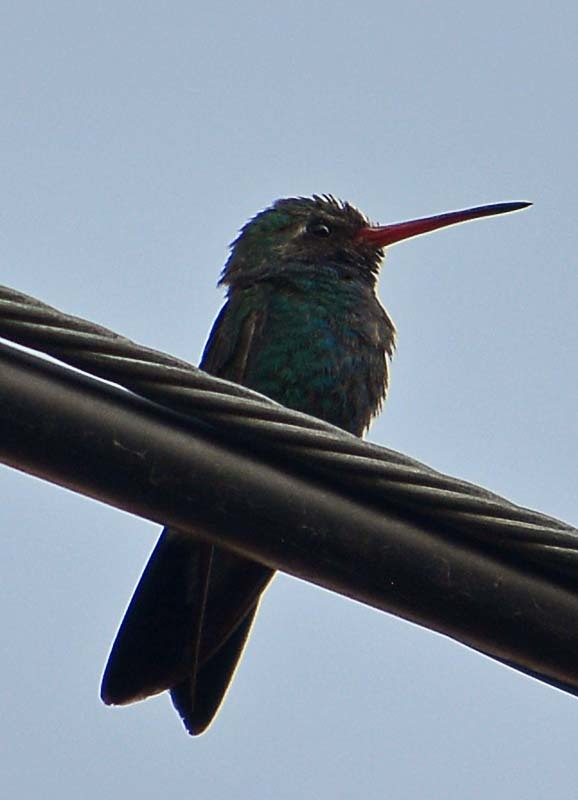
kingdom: Animalia
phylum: Chordata
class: Aves
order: Apodiformes
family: Trochilidae
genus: Cynanthus
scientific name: Cynanthus latirostris
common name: Broad-billed hummingbird
